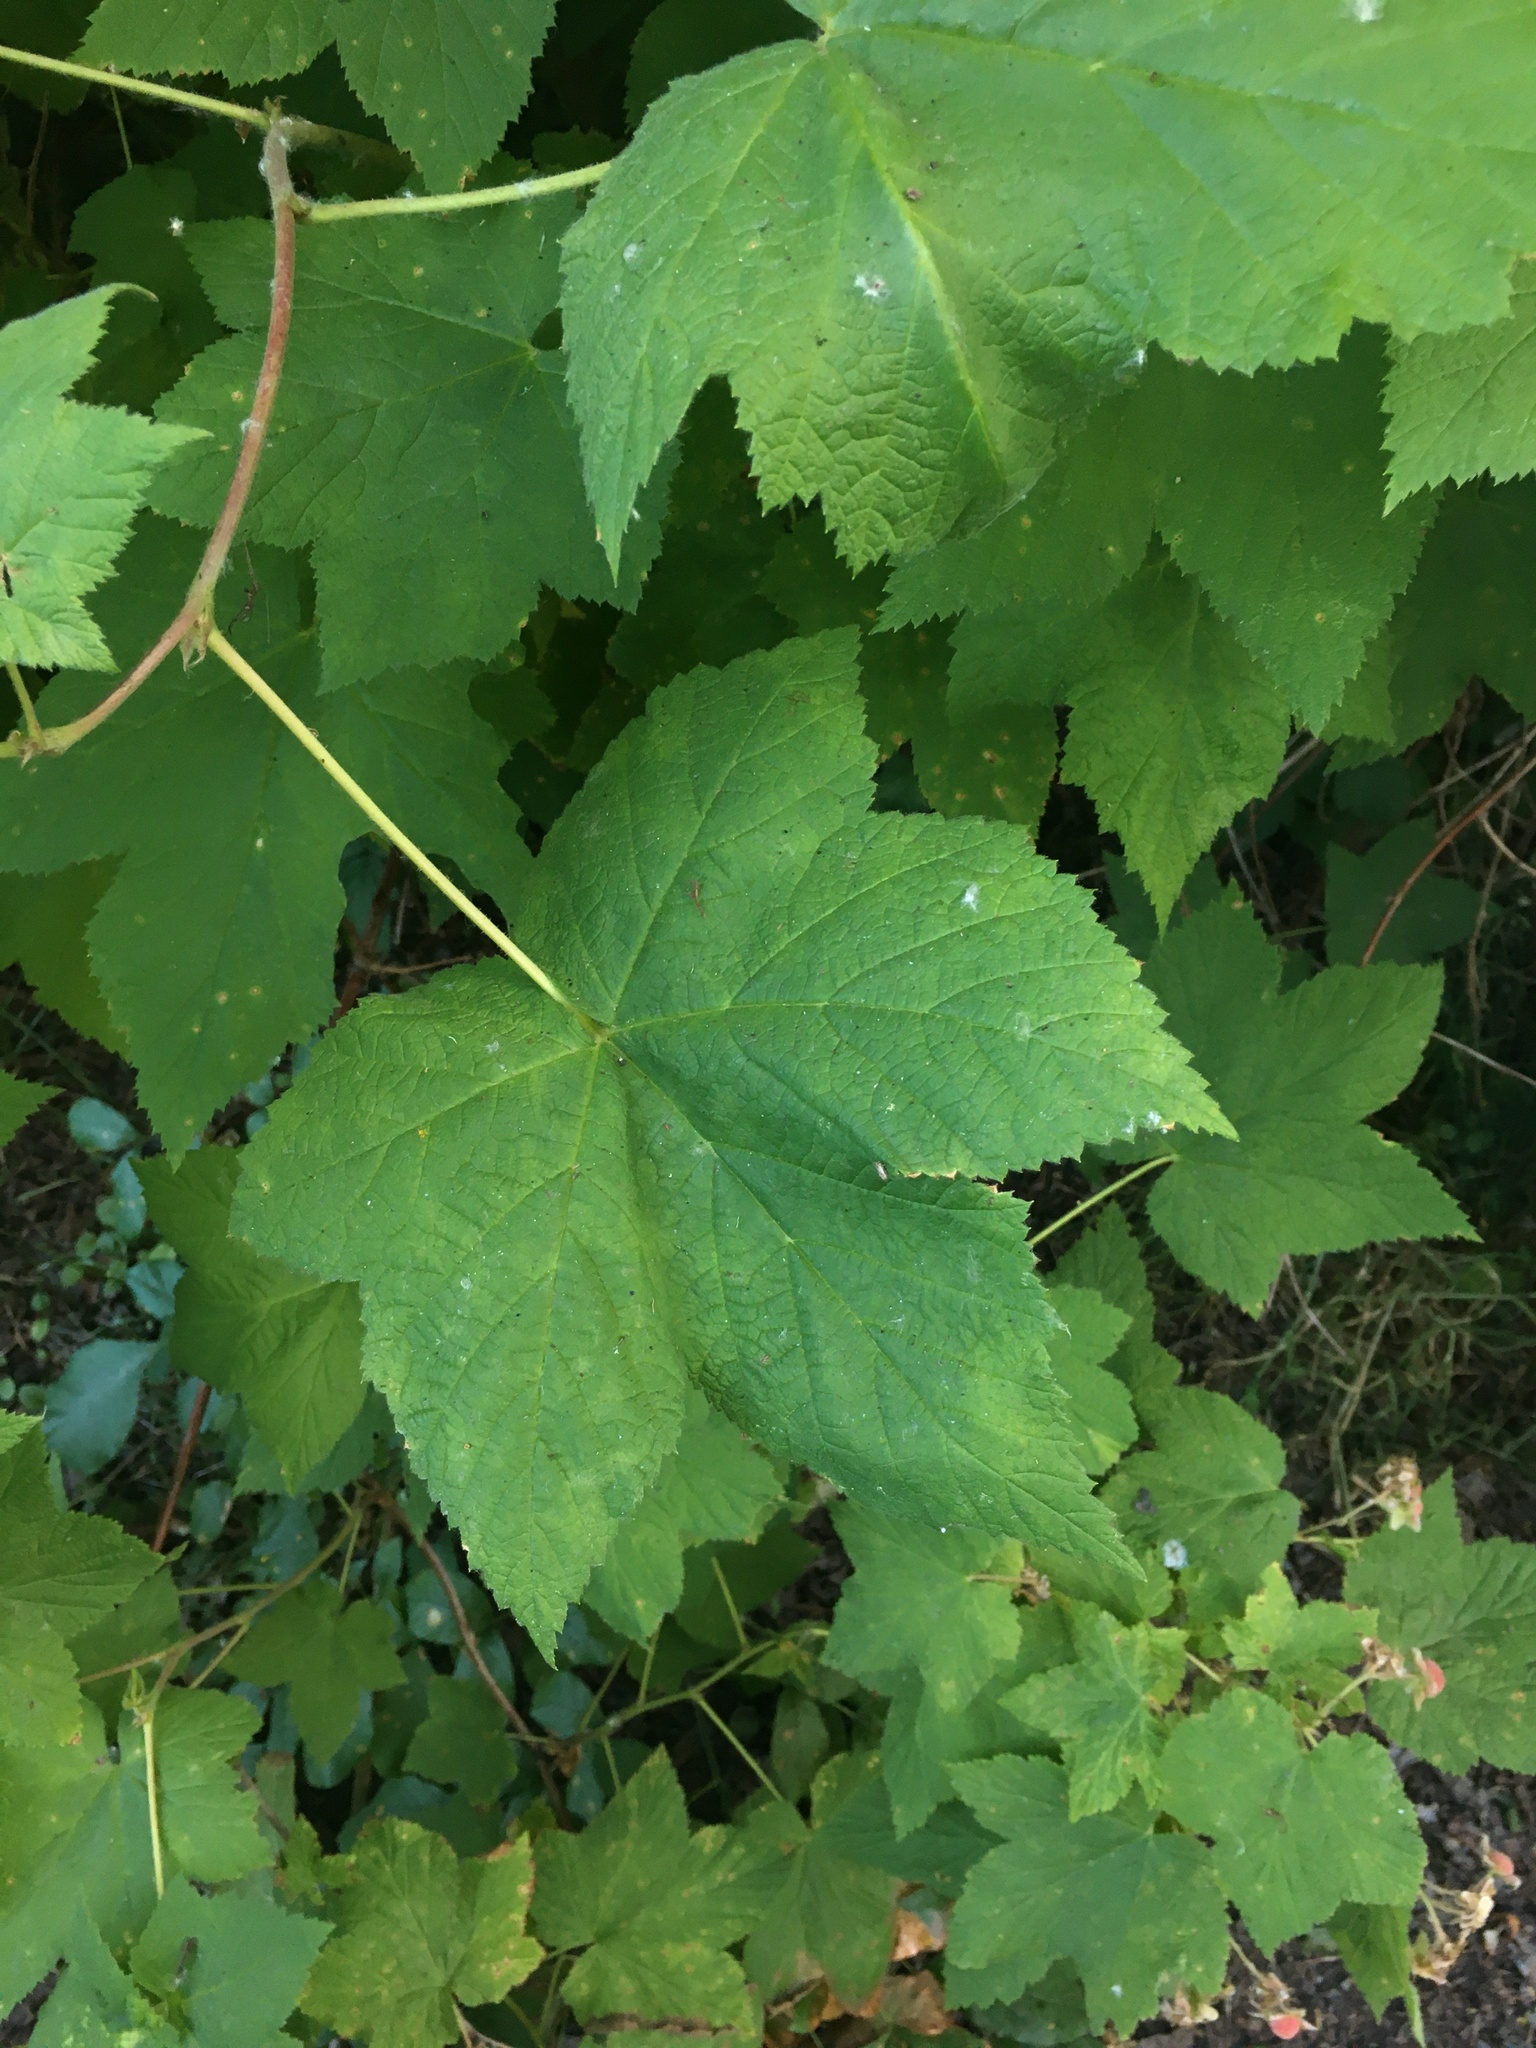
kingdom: Plantae
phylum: Tracheophyta
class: Magnoliopsida
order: Rosales
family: Rosaceae
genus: Rubus
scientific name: Rubus parviflorus
